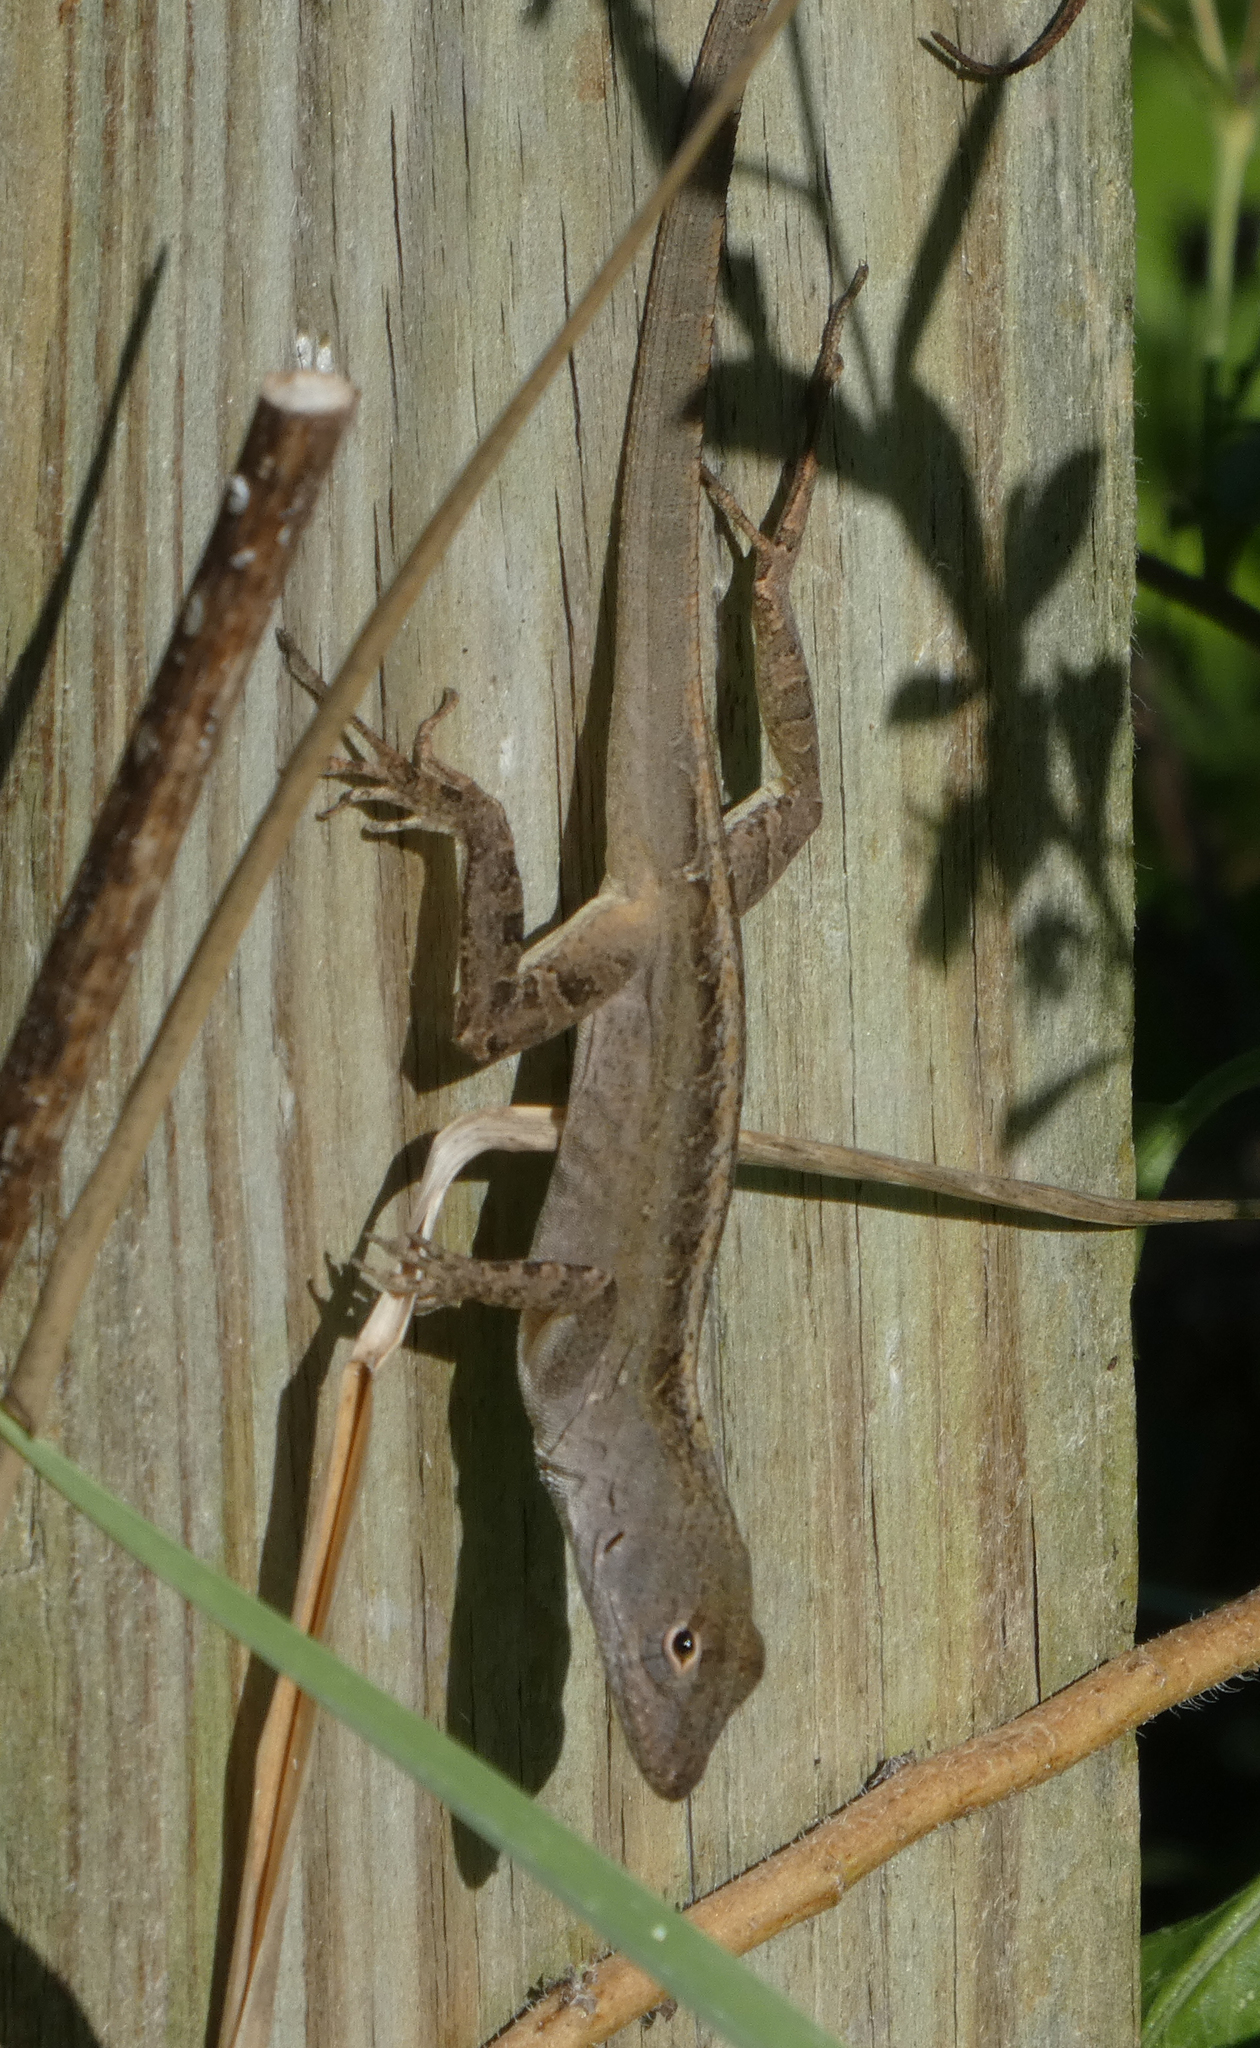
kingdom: Animalia
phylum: Chordata
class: Squamata
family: Dactyloidae
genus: Anolis
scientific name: Anolis sagrei
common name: Brown anole
